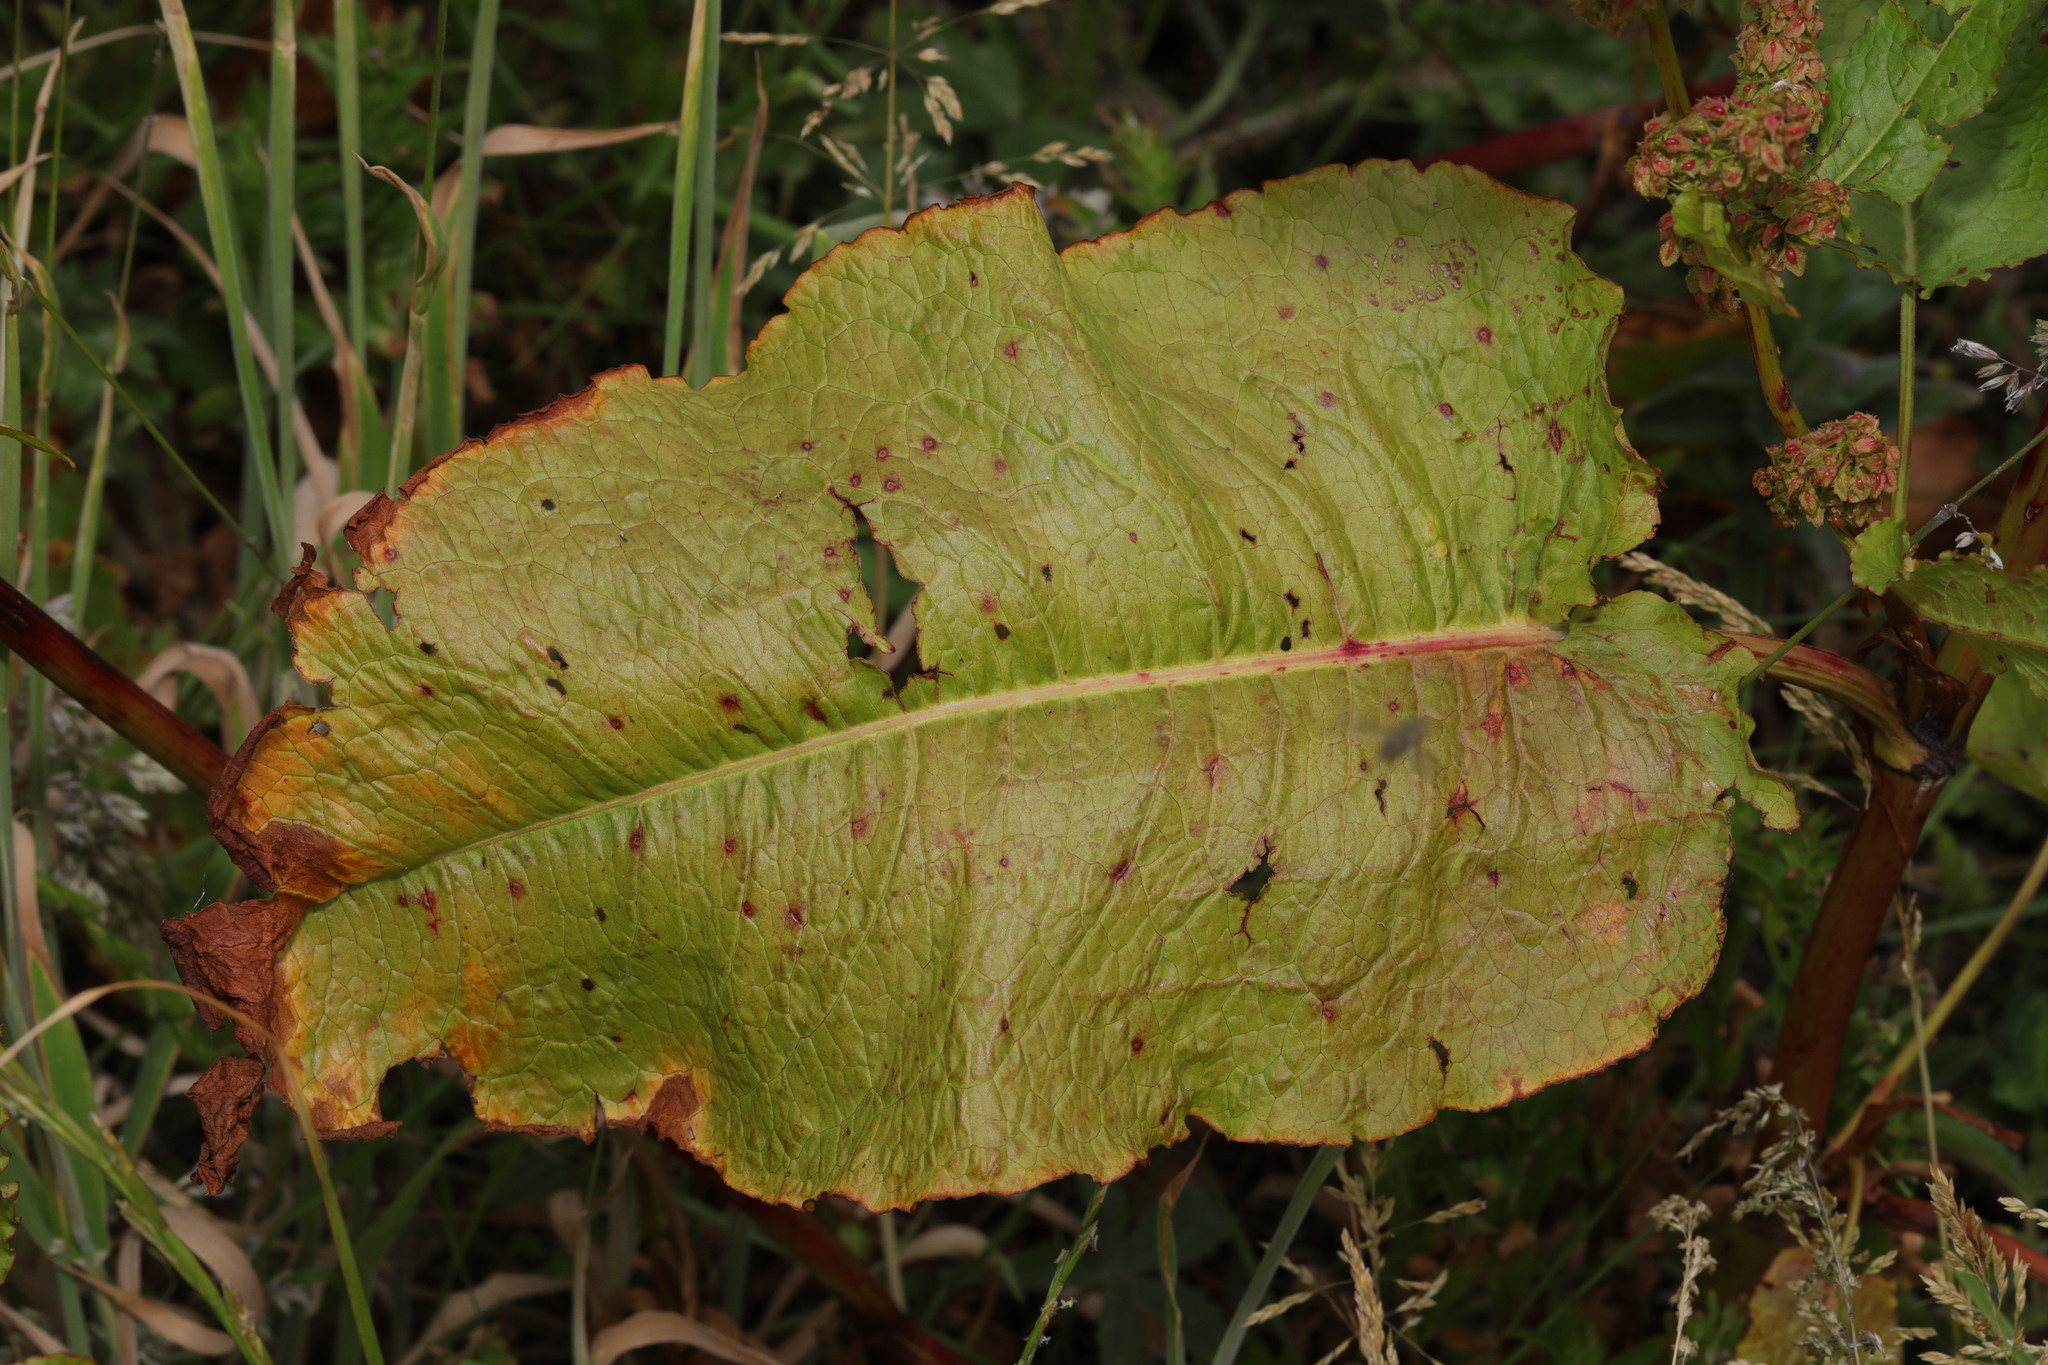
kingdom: Plantae
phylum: Tracheophyta
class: Magnoliopsida
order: Caryophyllales
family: Polygonaceae
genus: Rumex
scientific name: Rumex obtusifolius
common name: Bitter dock
